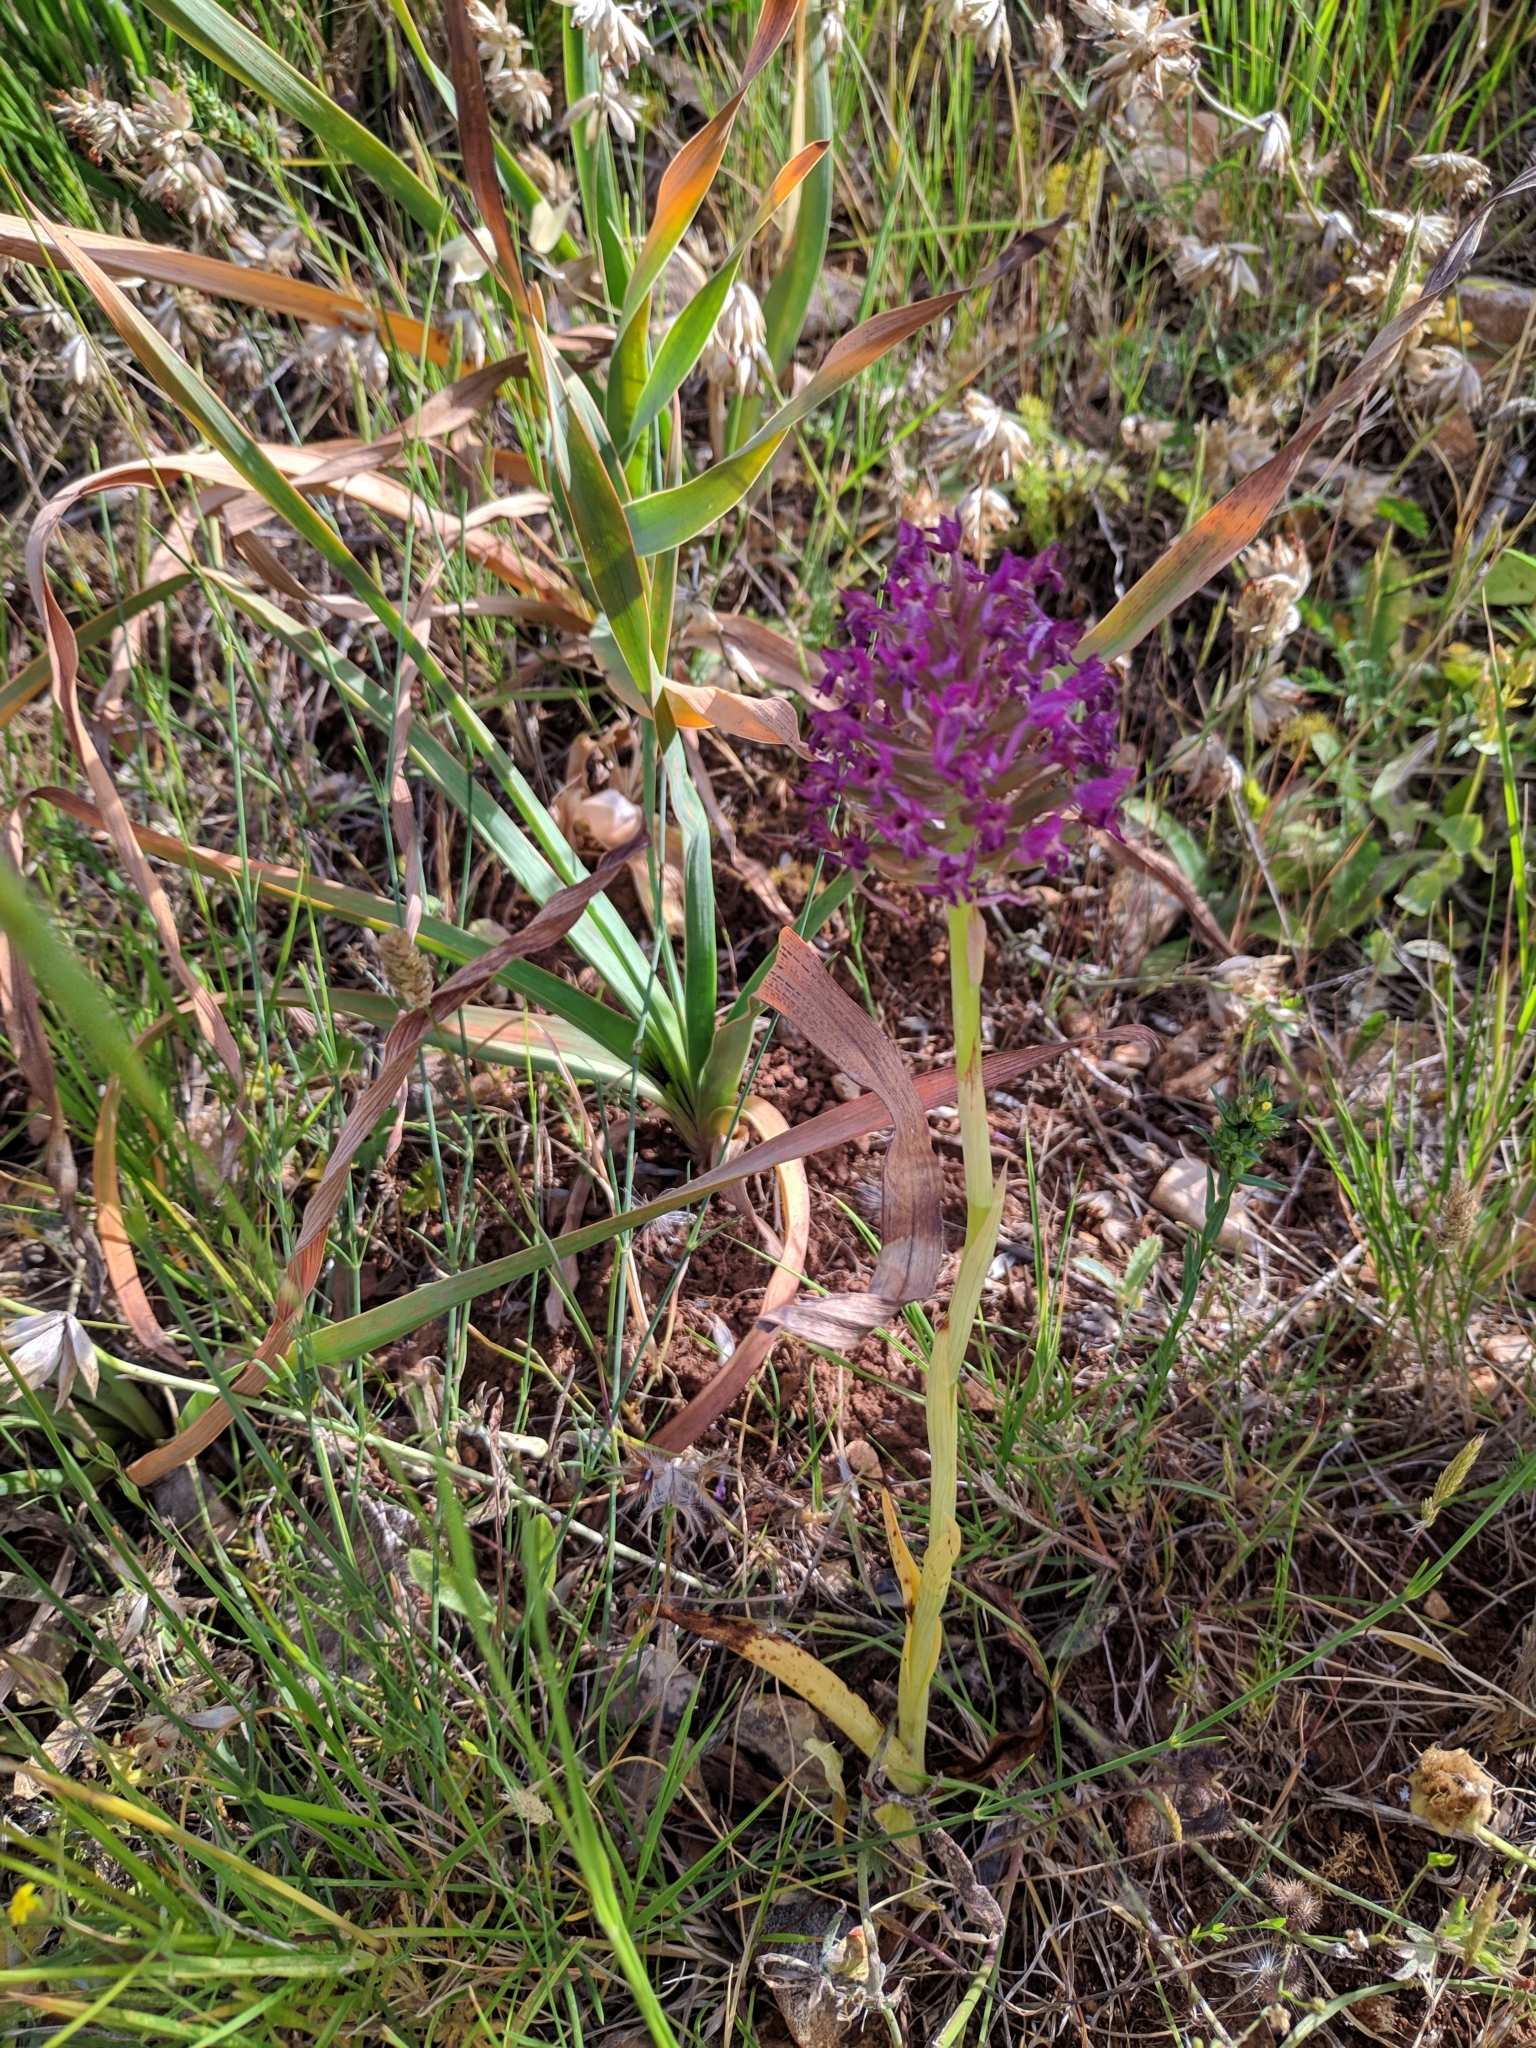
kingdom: Plantae
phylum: Tracheophyta
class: Liliopsida
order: Asparagales
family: Orchidaceae
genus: Anacamptis
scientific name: Anacamptis pyramidalis
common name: Pyramidal orchid
